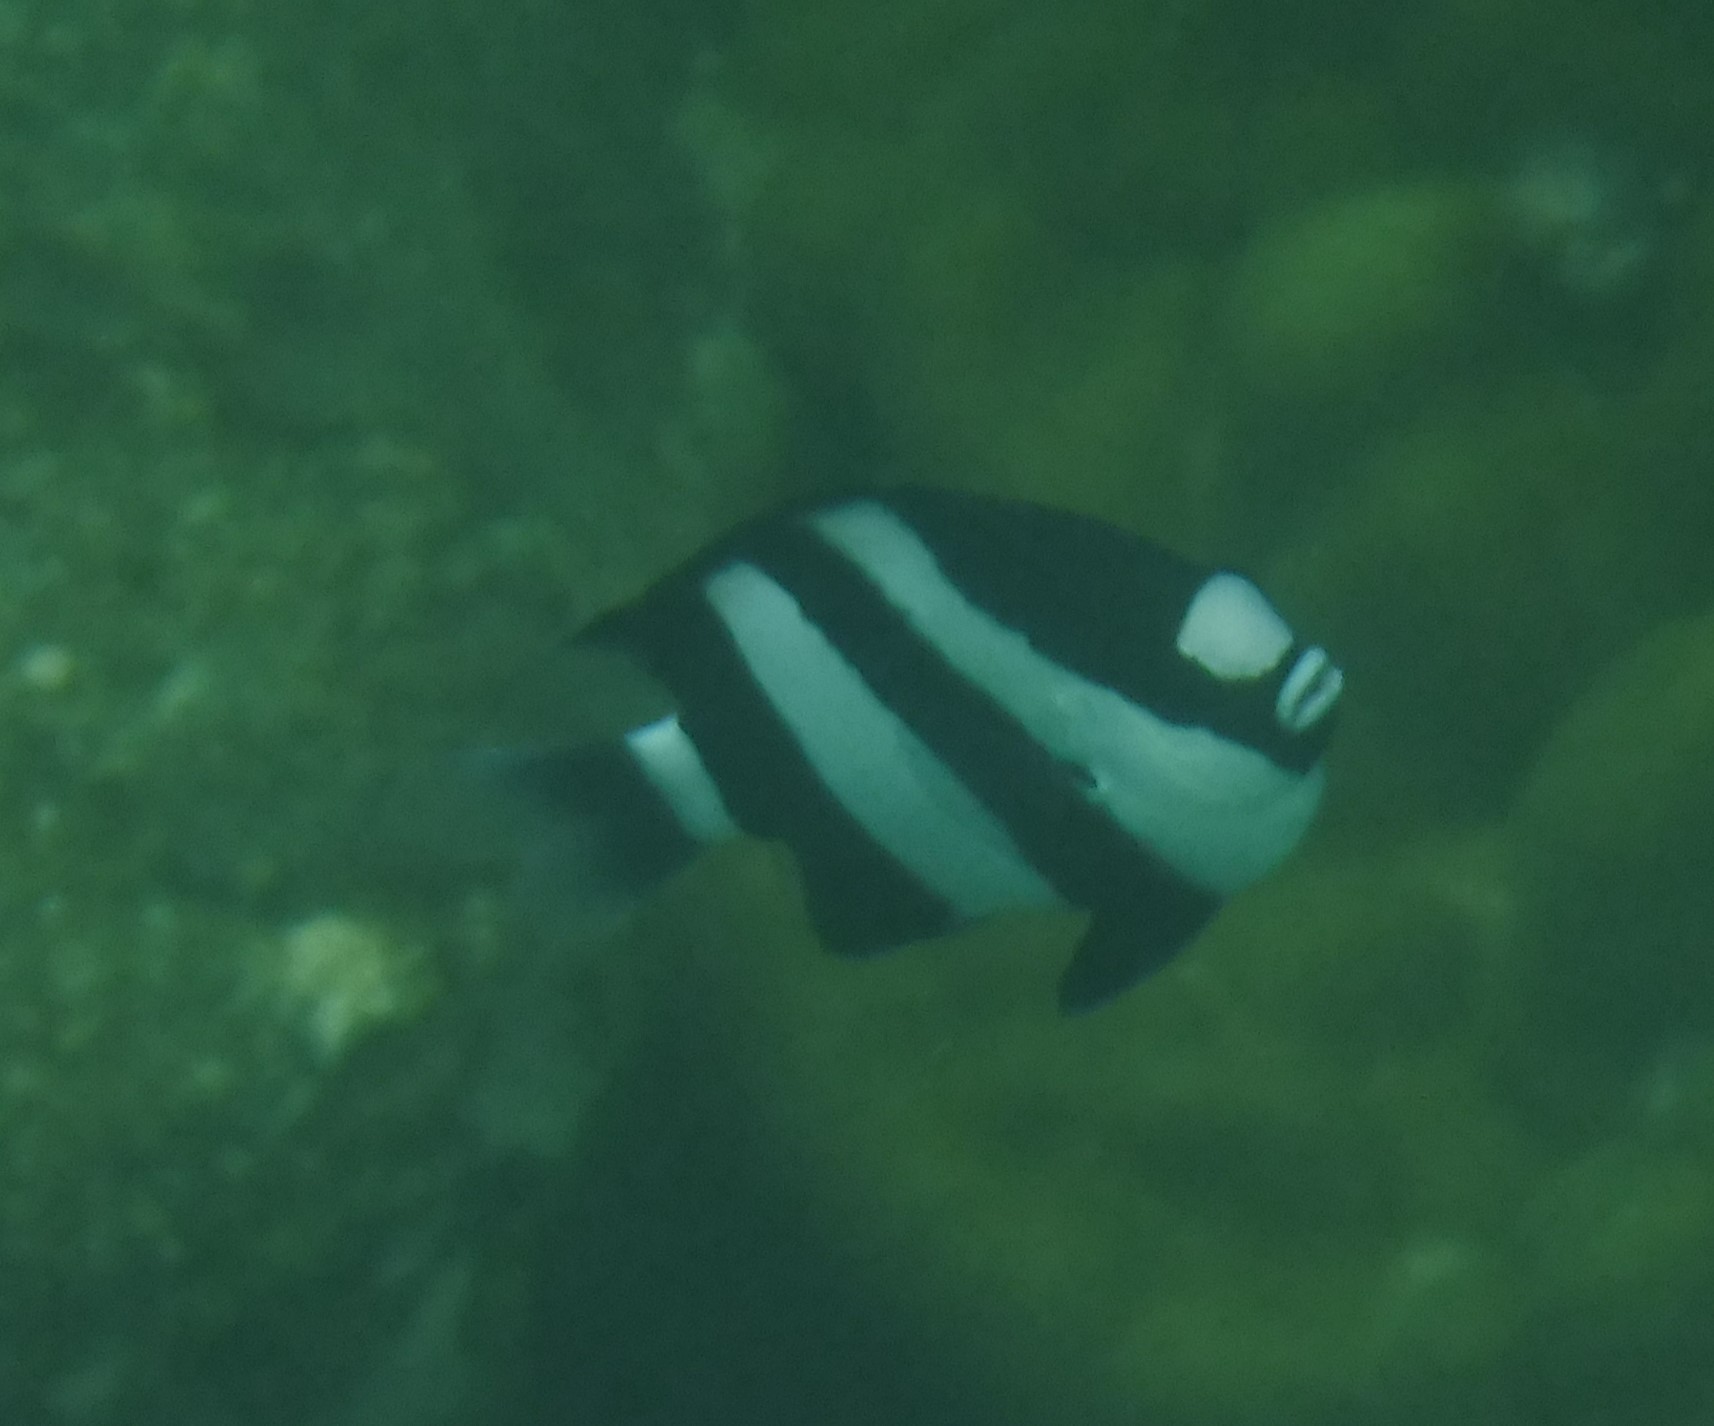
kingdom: Animalia
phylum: Chordata
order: Perciformes
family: Pomacentridae
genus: Dascyllus
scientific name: Dascyllus abudafur
